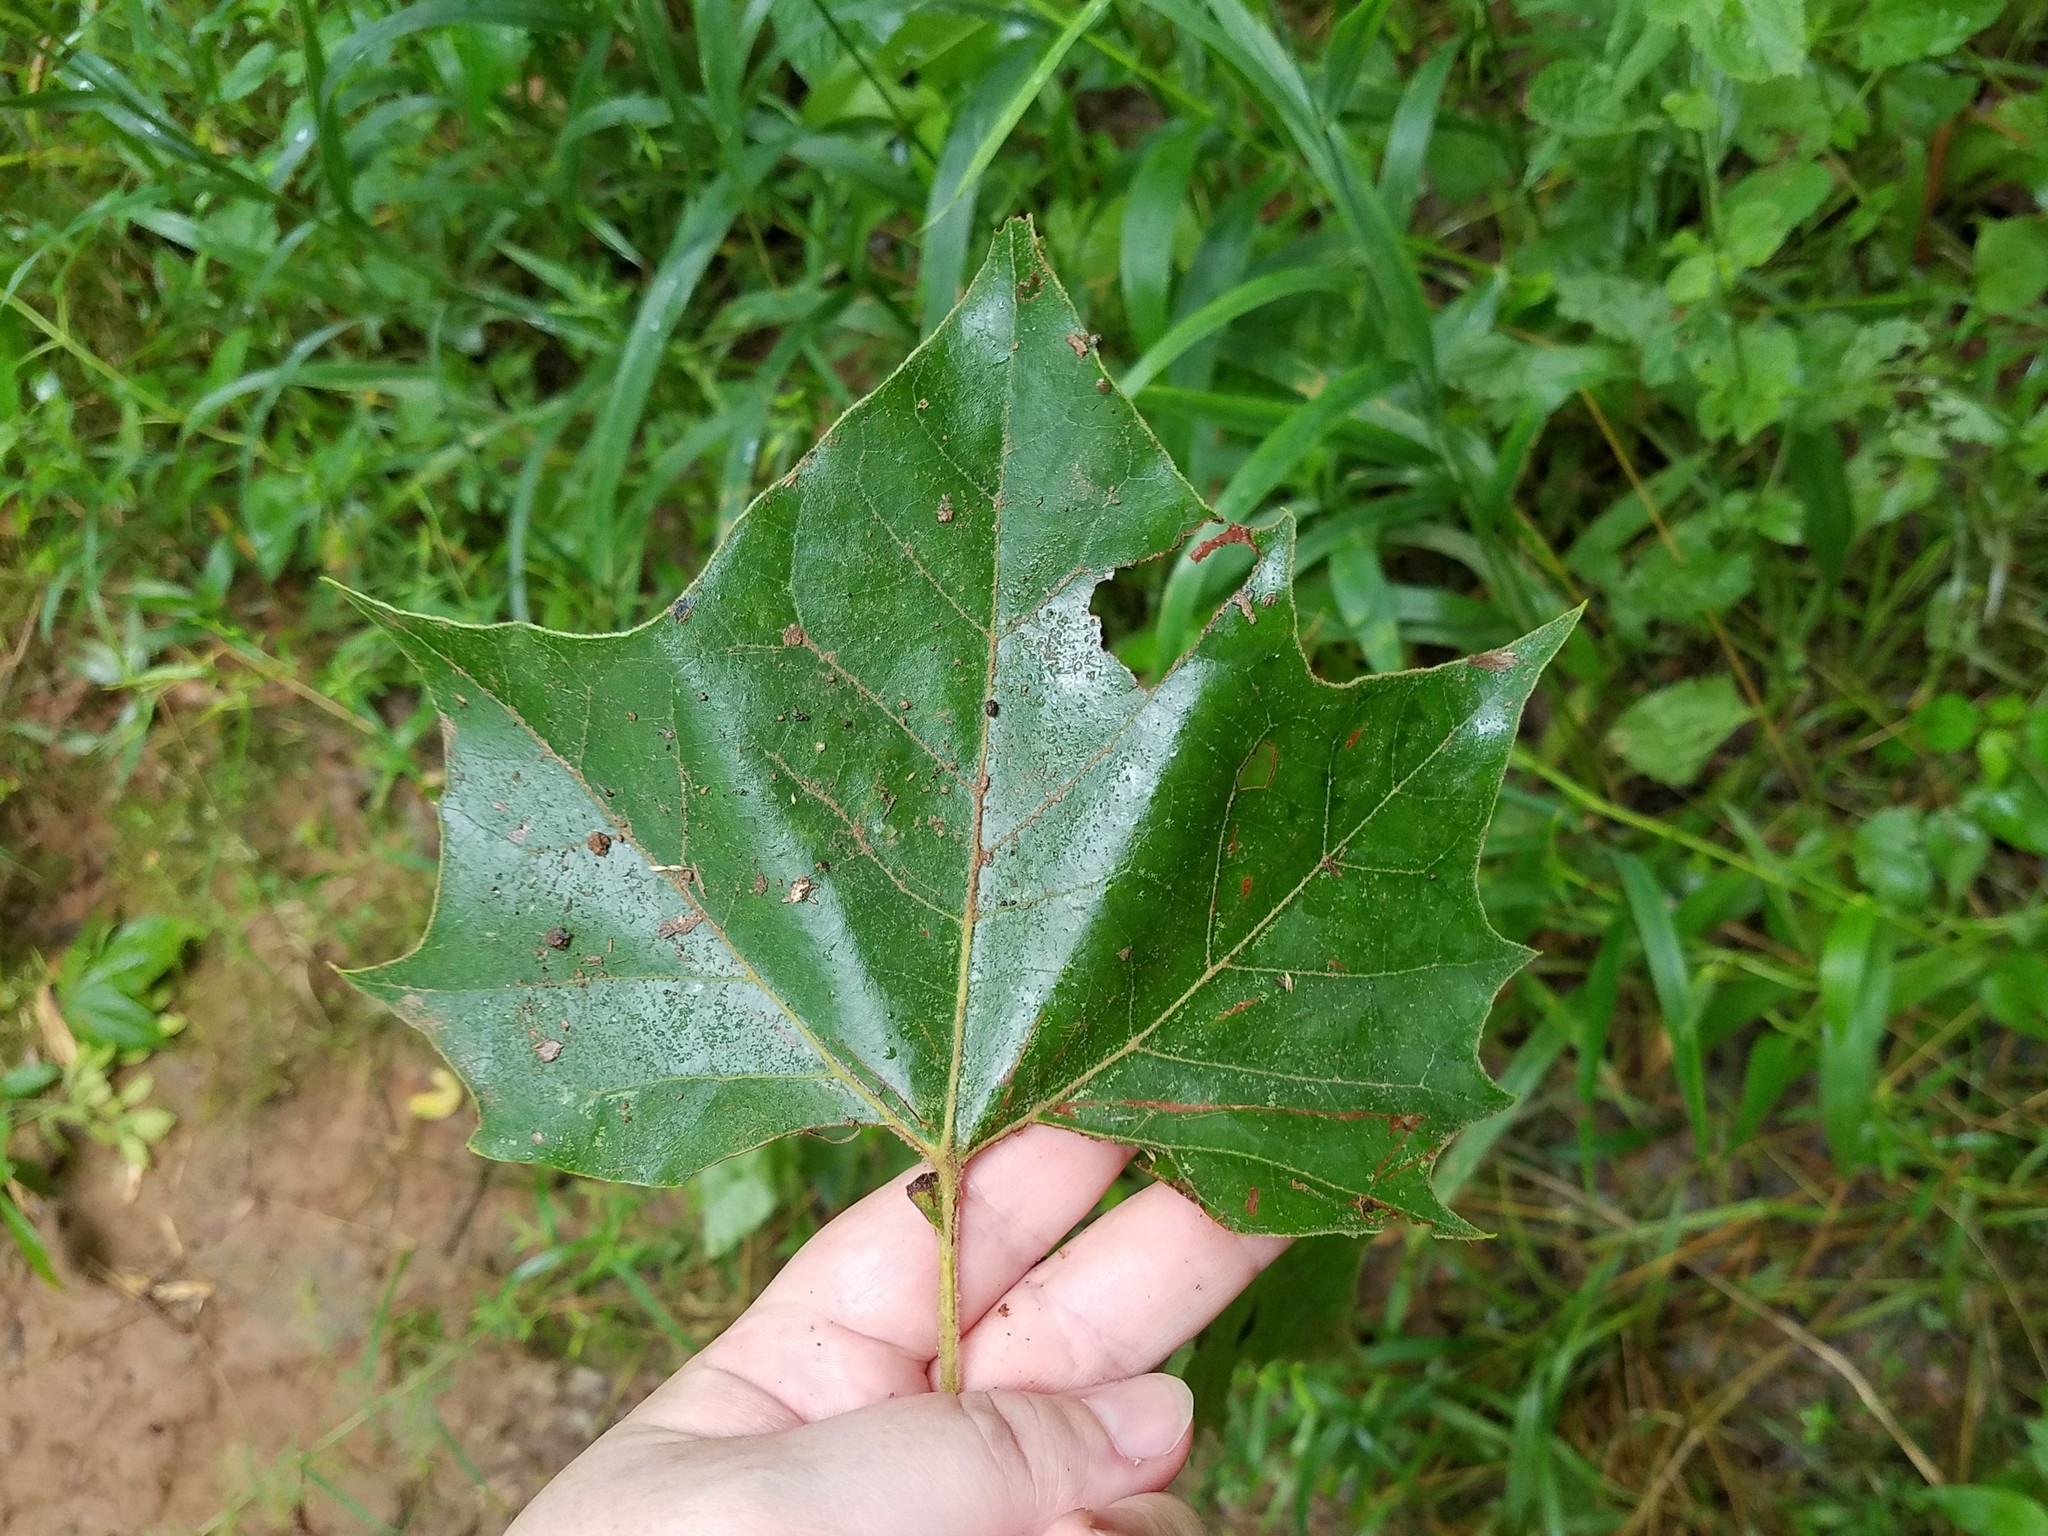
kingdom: Plantae
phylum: Tracheophyta
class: Magnoliopsida
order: Proteales
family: Platanaceae
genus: Platanus
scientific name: Platanus occidentalis
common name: American sycamore
